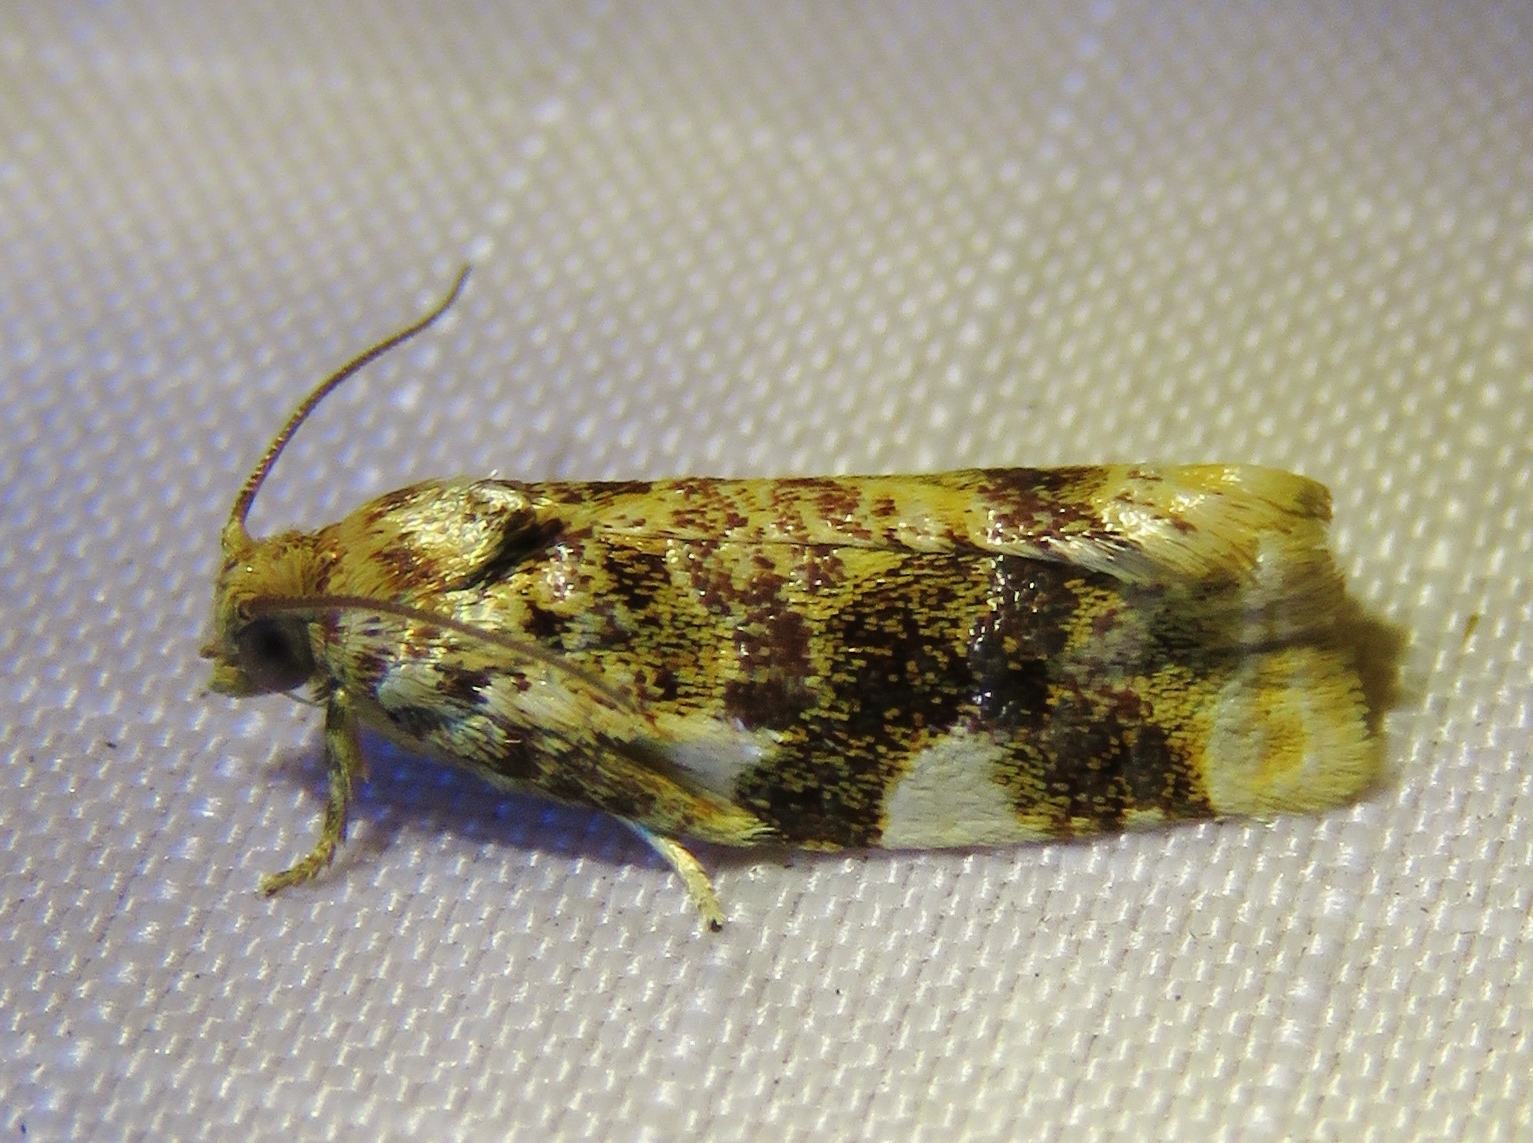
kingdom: Animalia
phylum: Arthropoda
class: Insecta
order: Lepidoptera
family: Tortricidae
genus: Archips
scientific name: Archips argyrospila
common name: Fruit-tree leafroller moth
